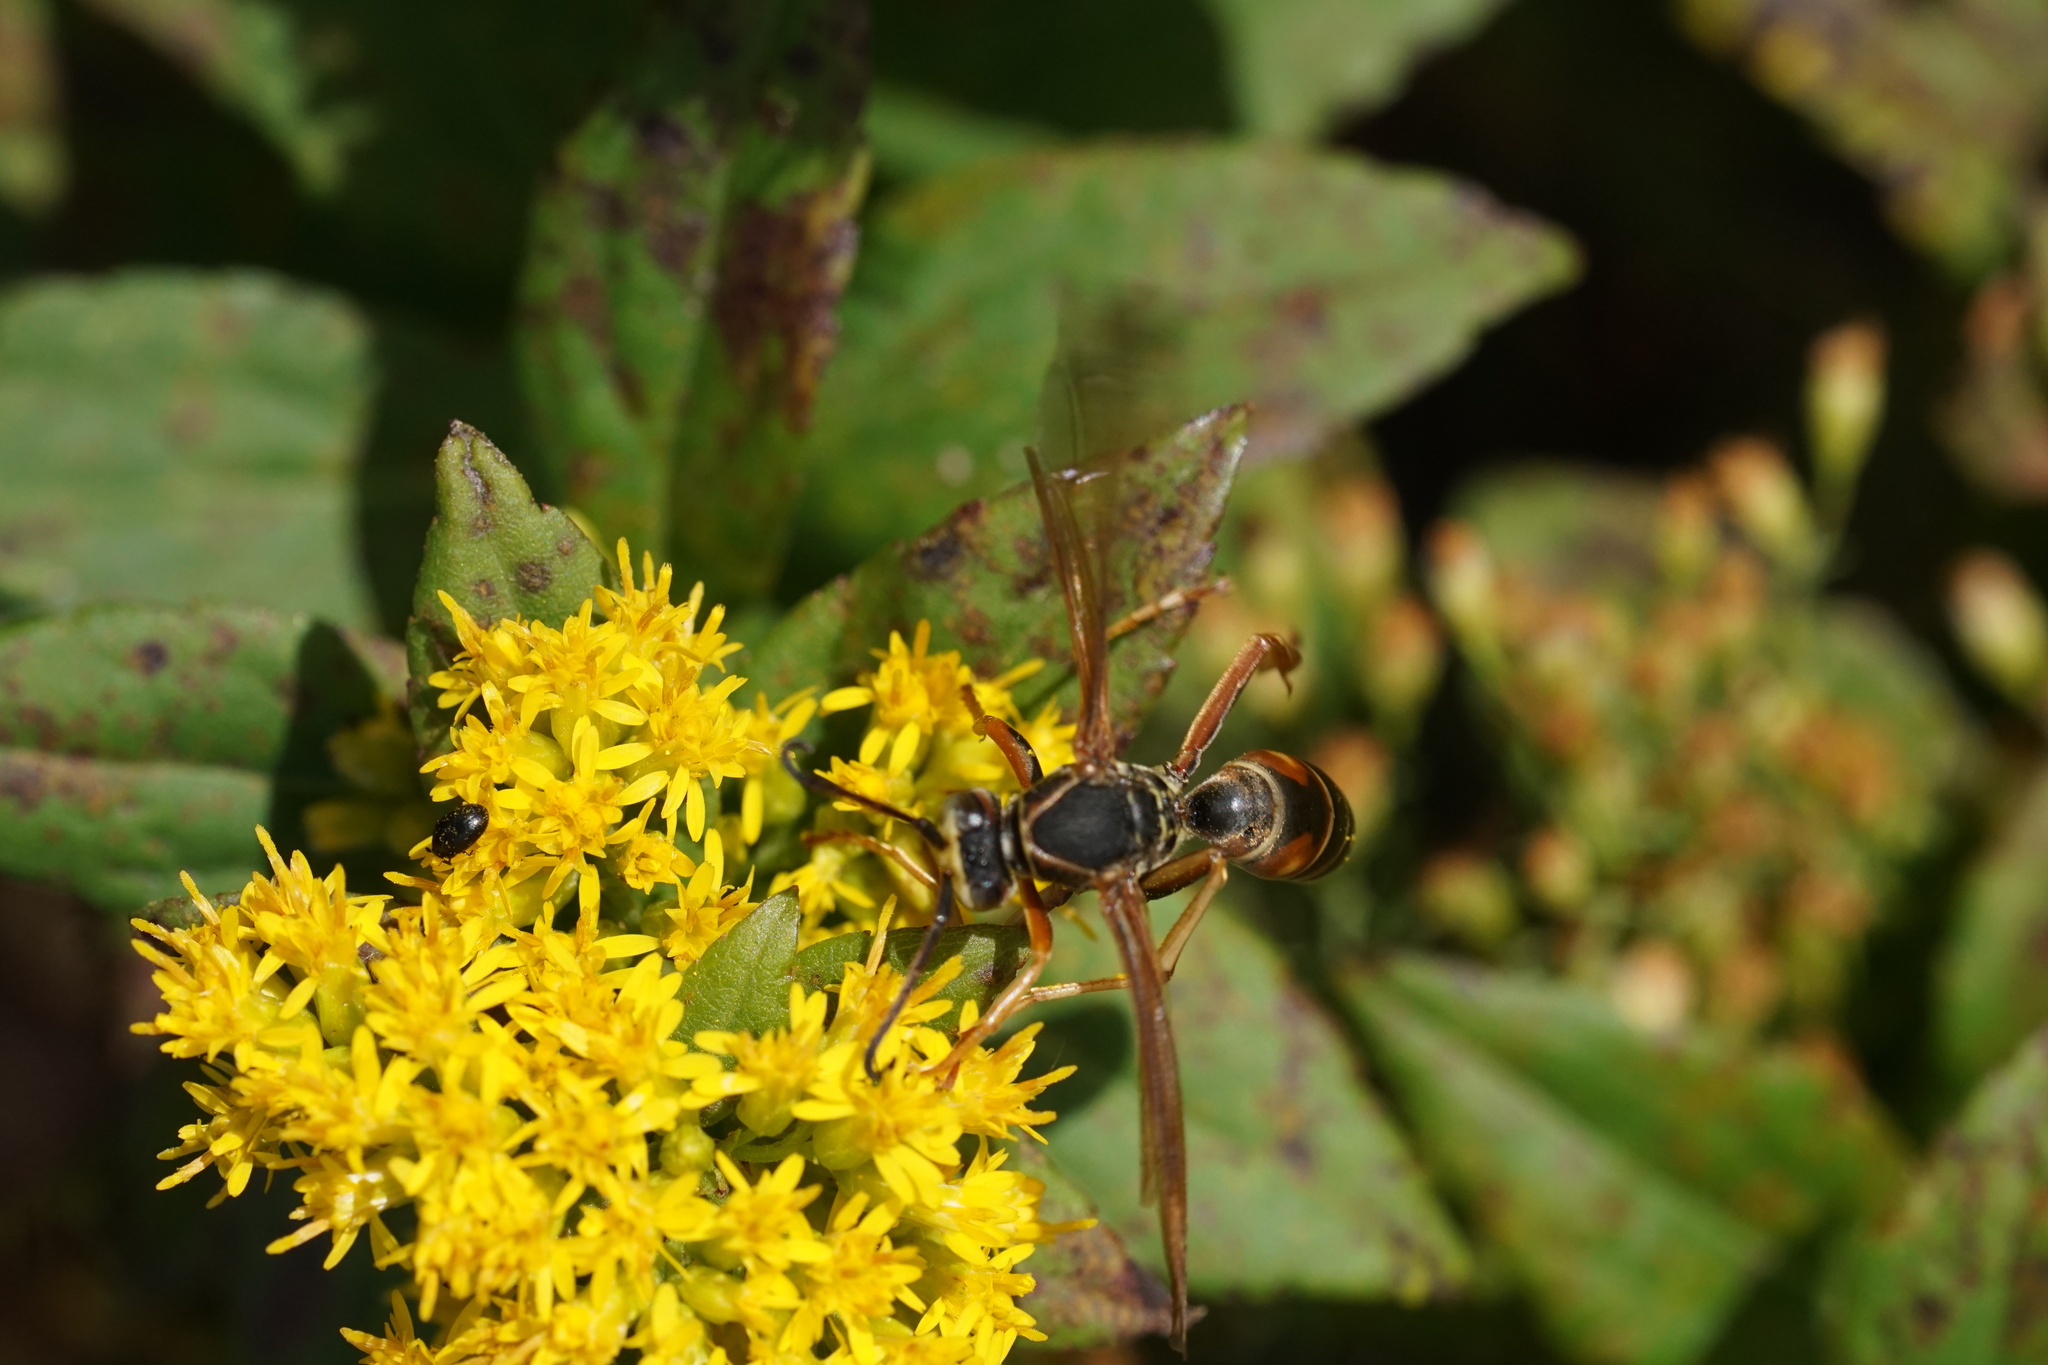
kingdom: Animalia
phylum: Arthropoda
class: Insecta
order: Hymenoptera
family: Eumenidae
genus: Polistes
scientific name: Polistes fuscatus
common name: Dark paper wasp
